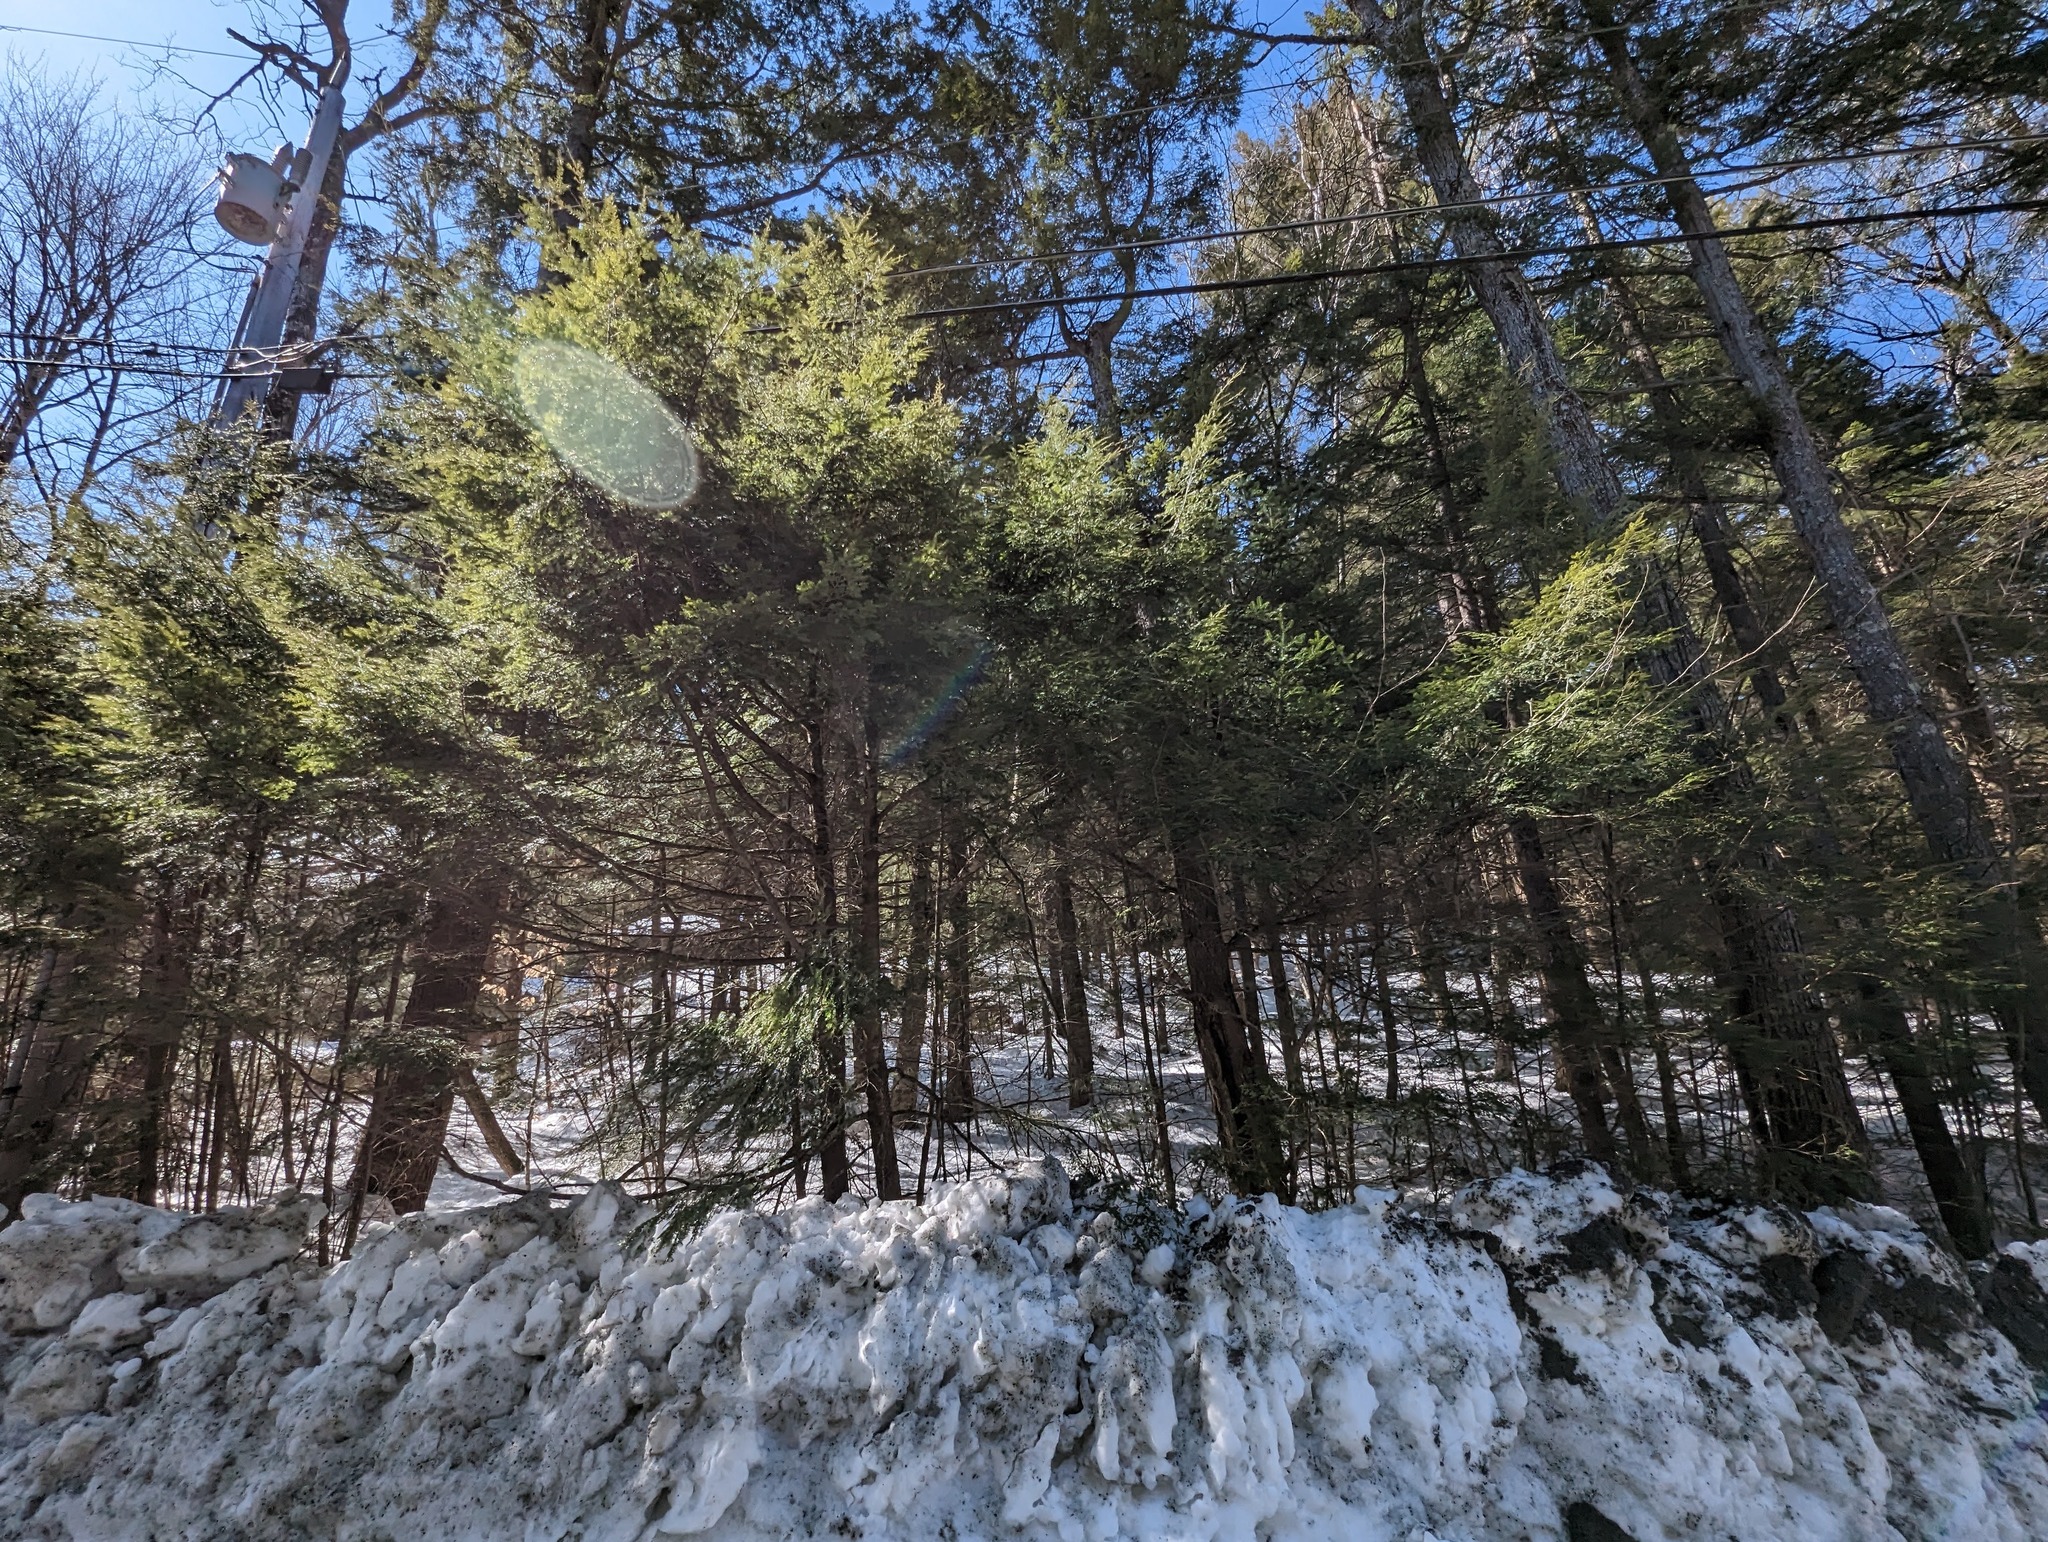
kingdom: Plantae
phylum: Tracheophyta
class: Pinopsida
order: Pinales
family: Pinaceae
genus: Tsuga
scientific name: Tsuga canadensis
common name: Eastern hemlock
